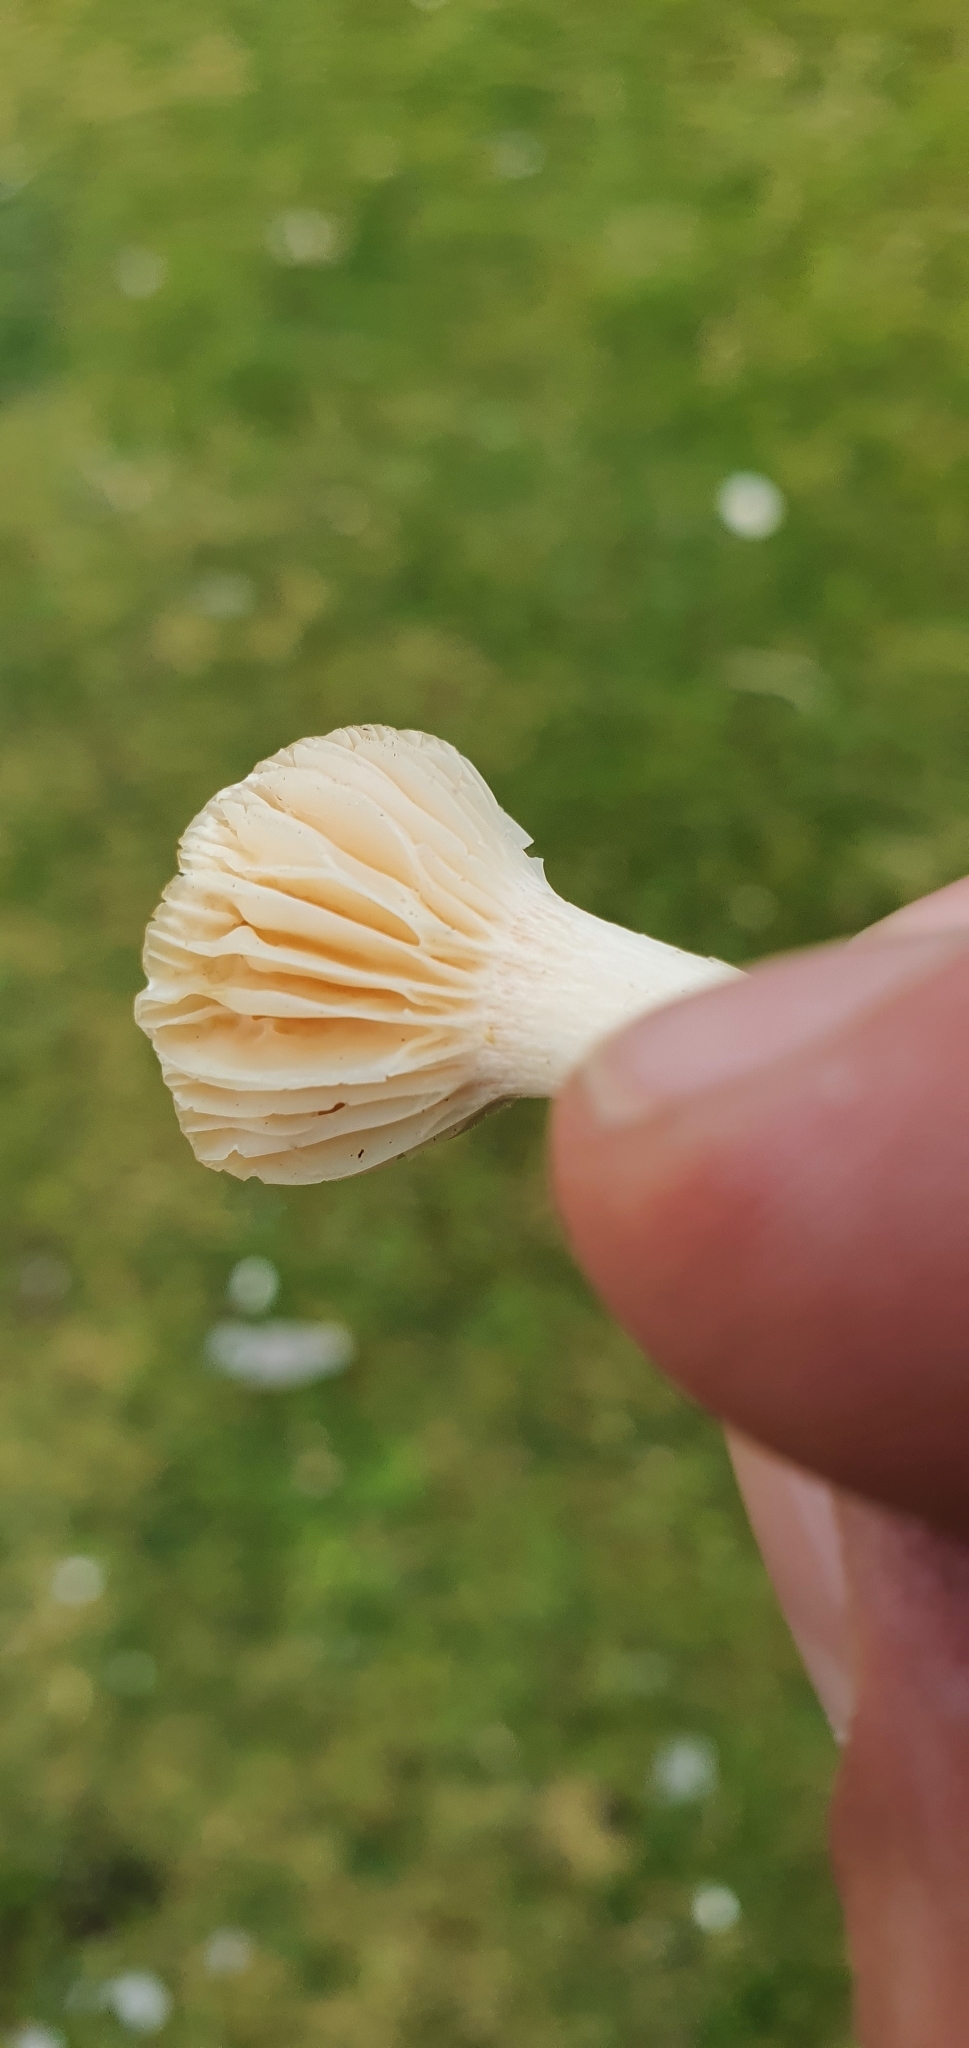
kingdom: Fungi
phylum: Basidiomycota
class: Agaricomycetes
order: Agaricales
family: Hygrophoraceae
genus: Cuphophyllus
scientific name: Cuphophyllus pratensis
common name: Meadow waxcap
